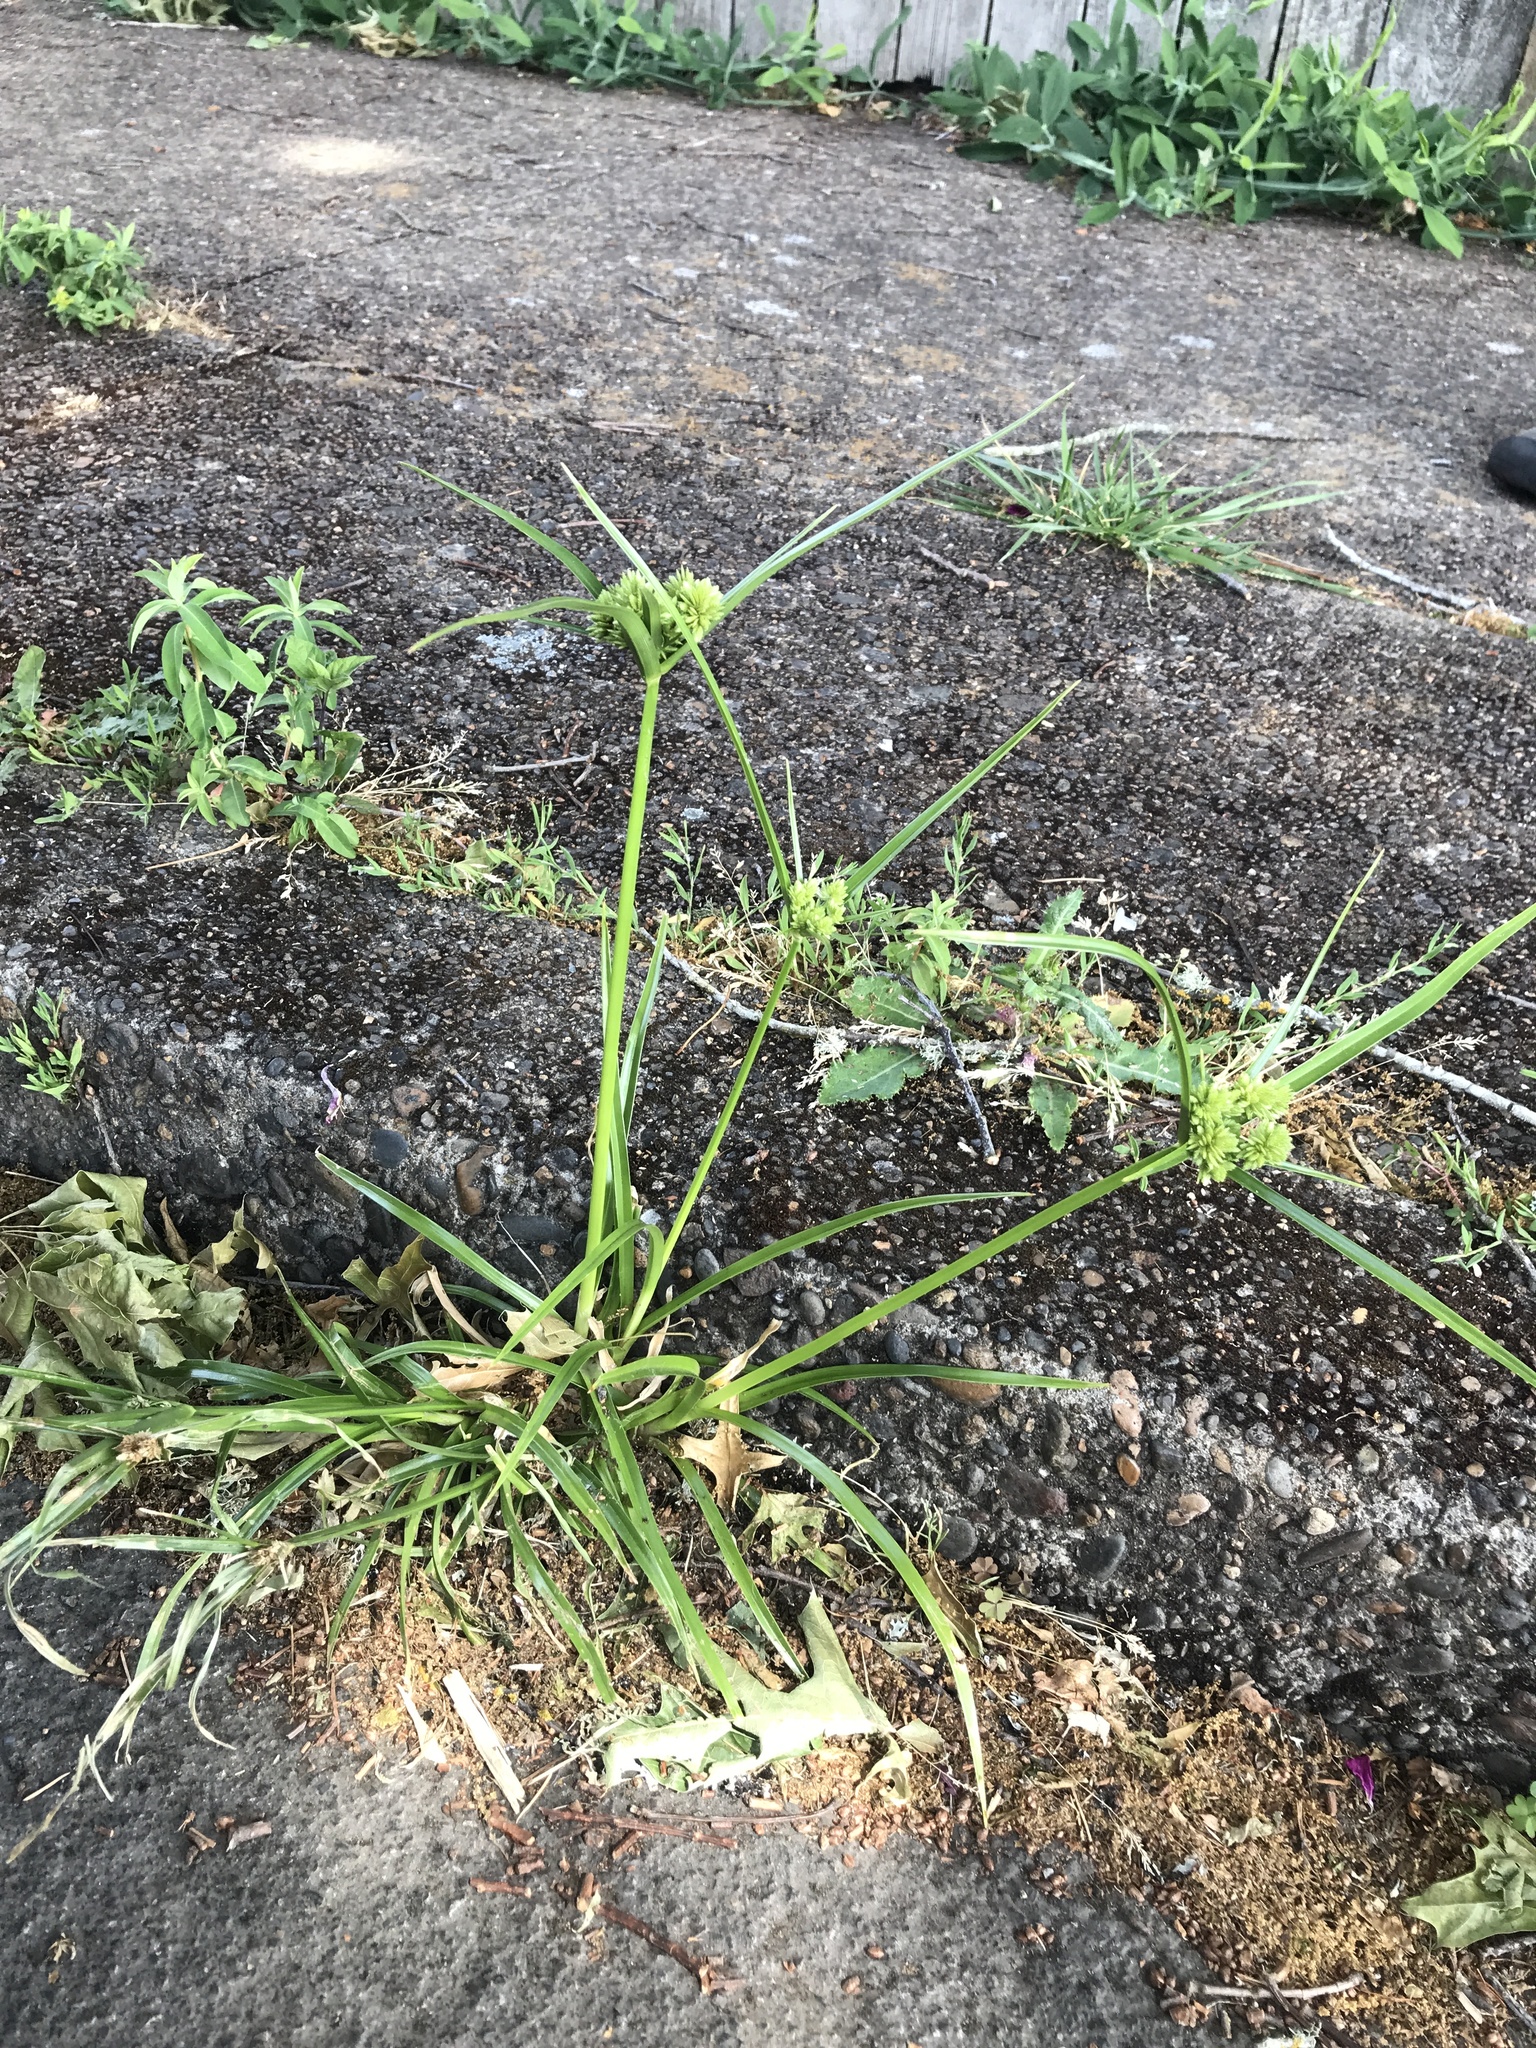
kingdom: Plantae
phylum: Tracheophyta
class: Liliopsida
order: Poales
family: Cyperaceae
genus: Cyperus
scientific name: Cyperus eragrostis
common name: Tall flatsedge
